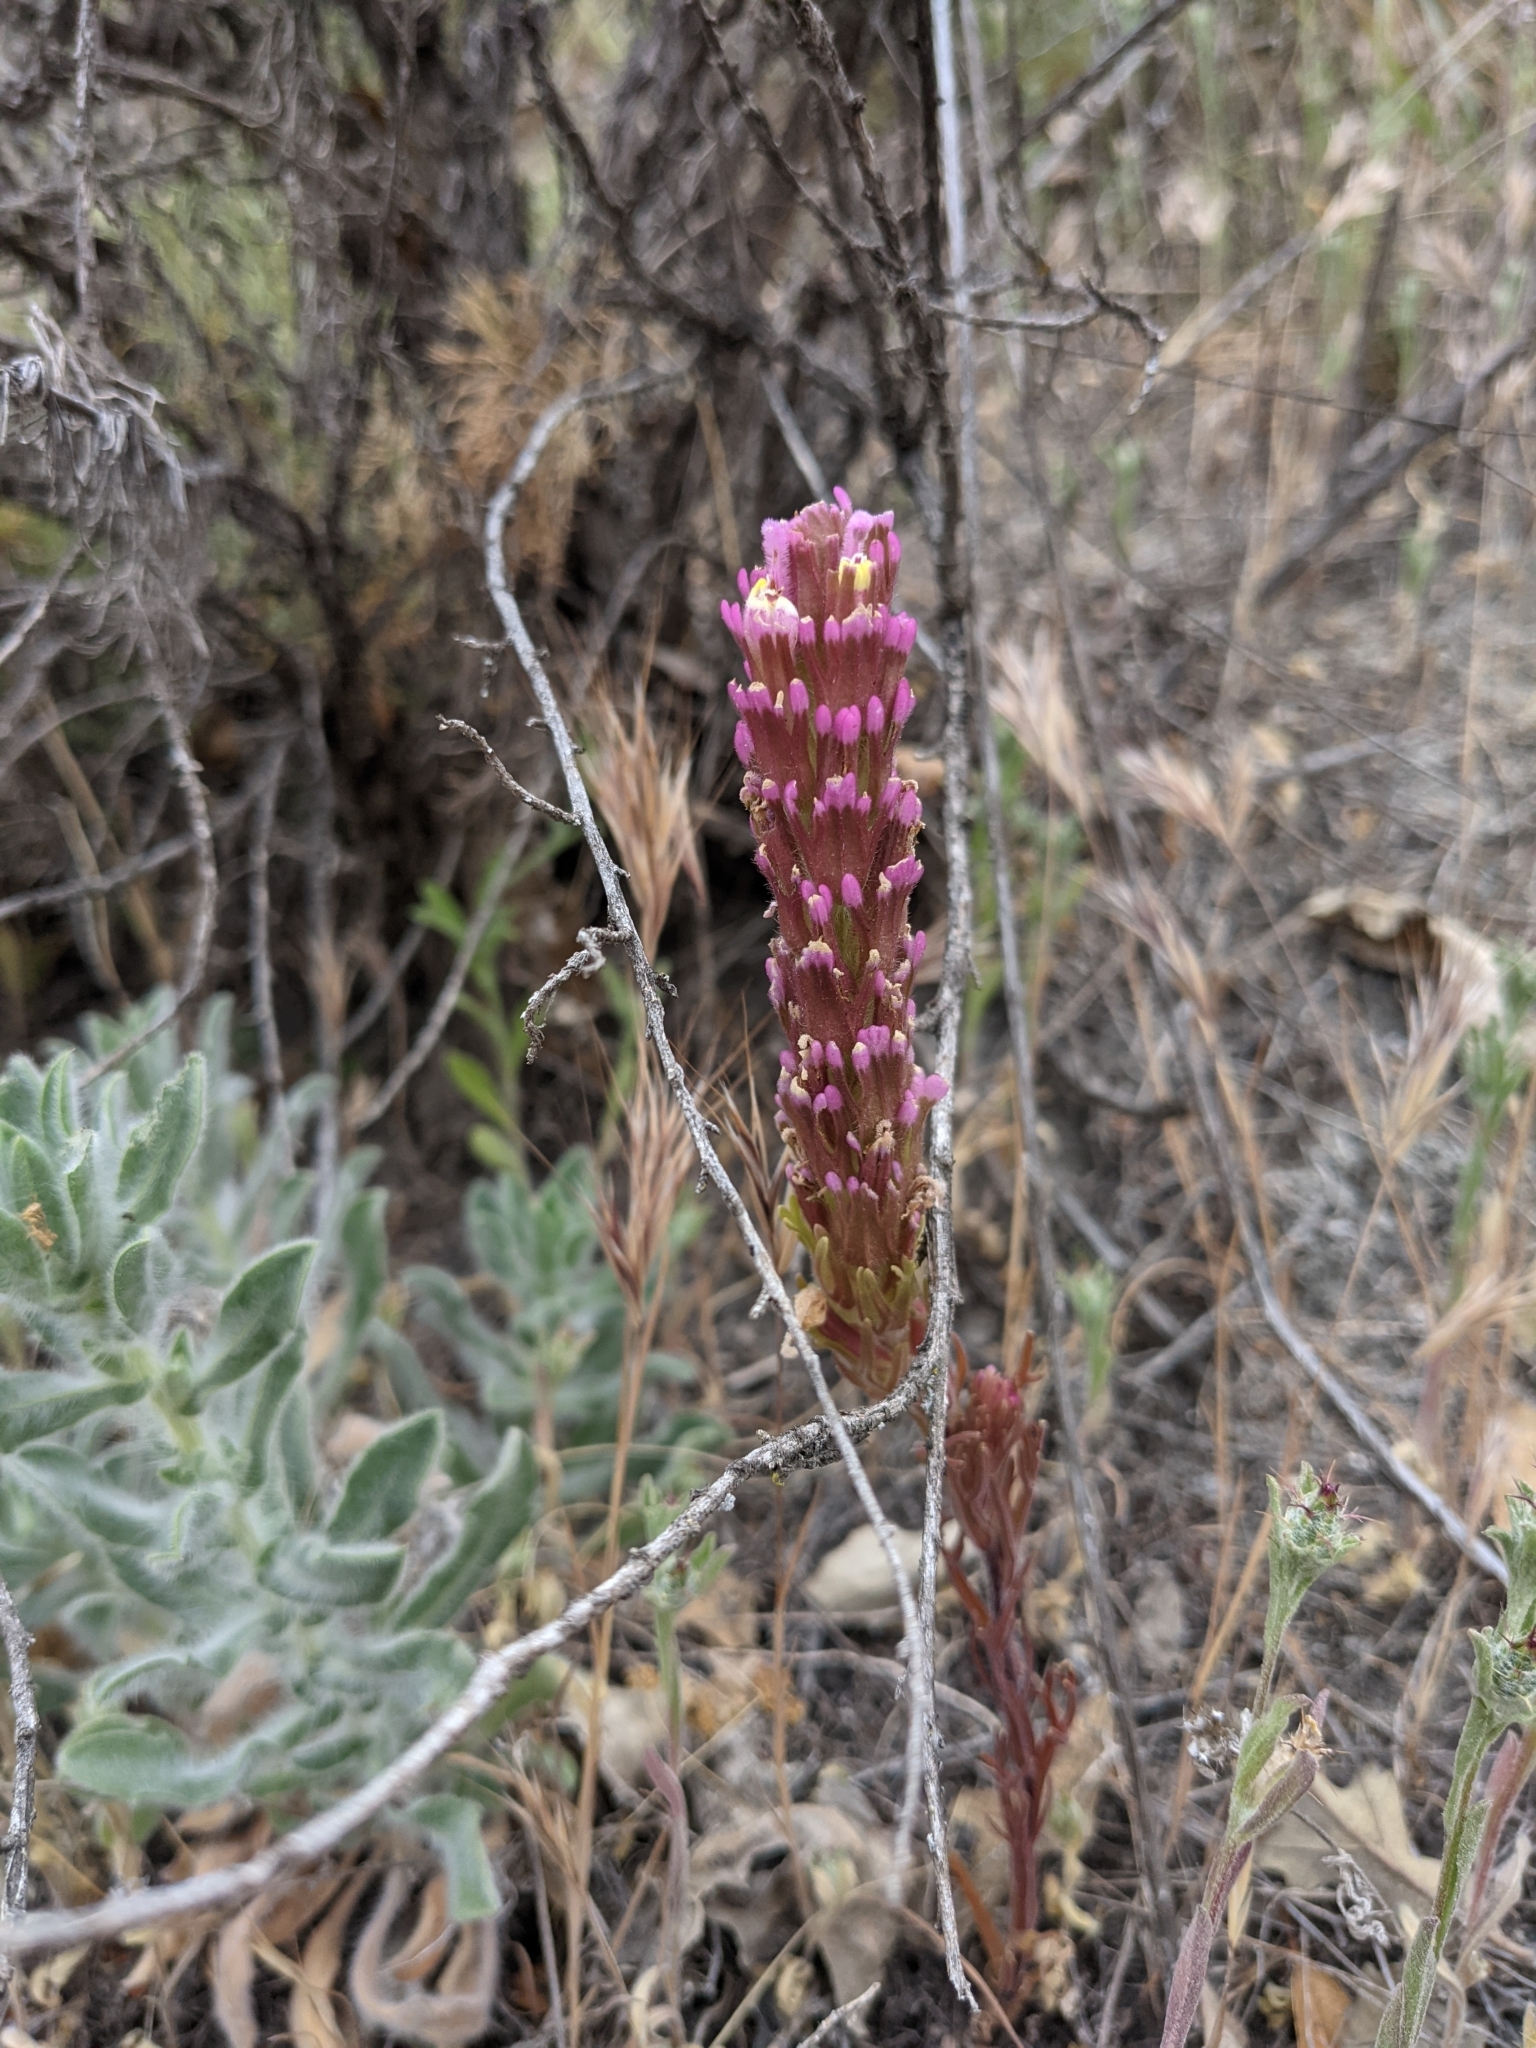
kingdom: Plantae
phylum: Tracheophyta
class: Magnoliopsida
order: Lamiales
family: Orobanchaceae
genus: Castilleja
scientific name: Castilleja exserta
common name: Purple owl-clover
